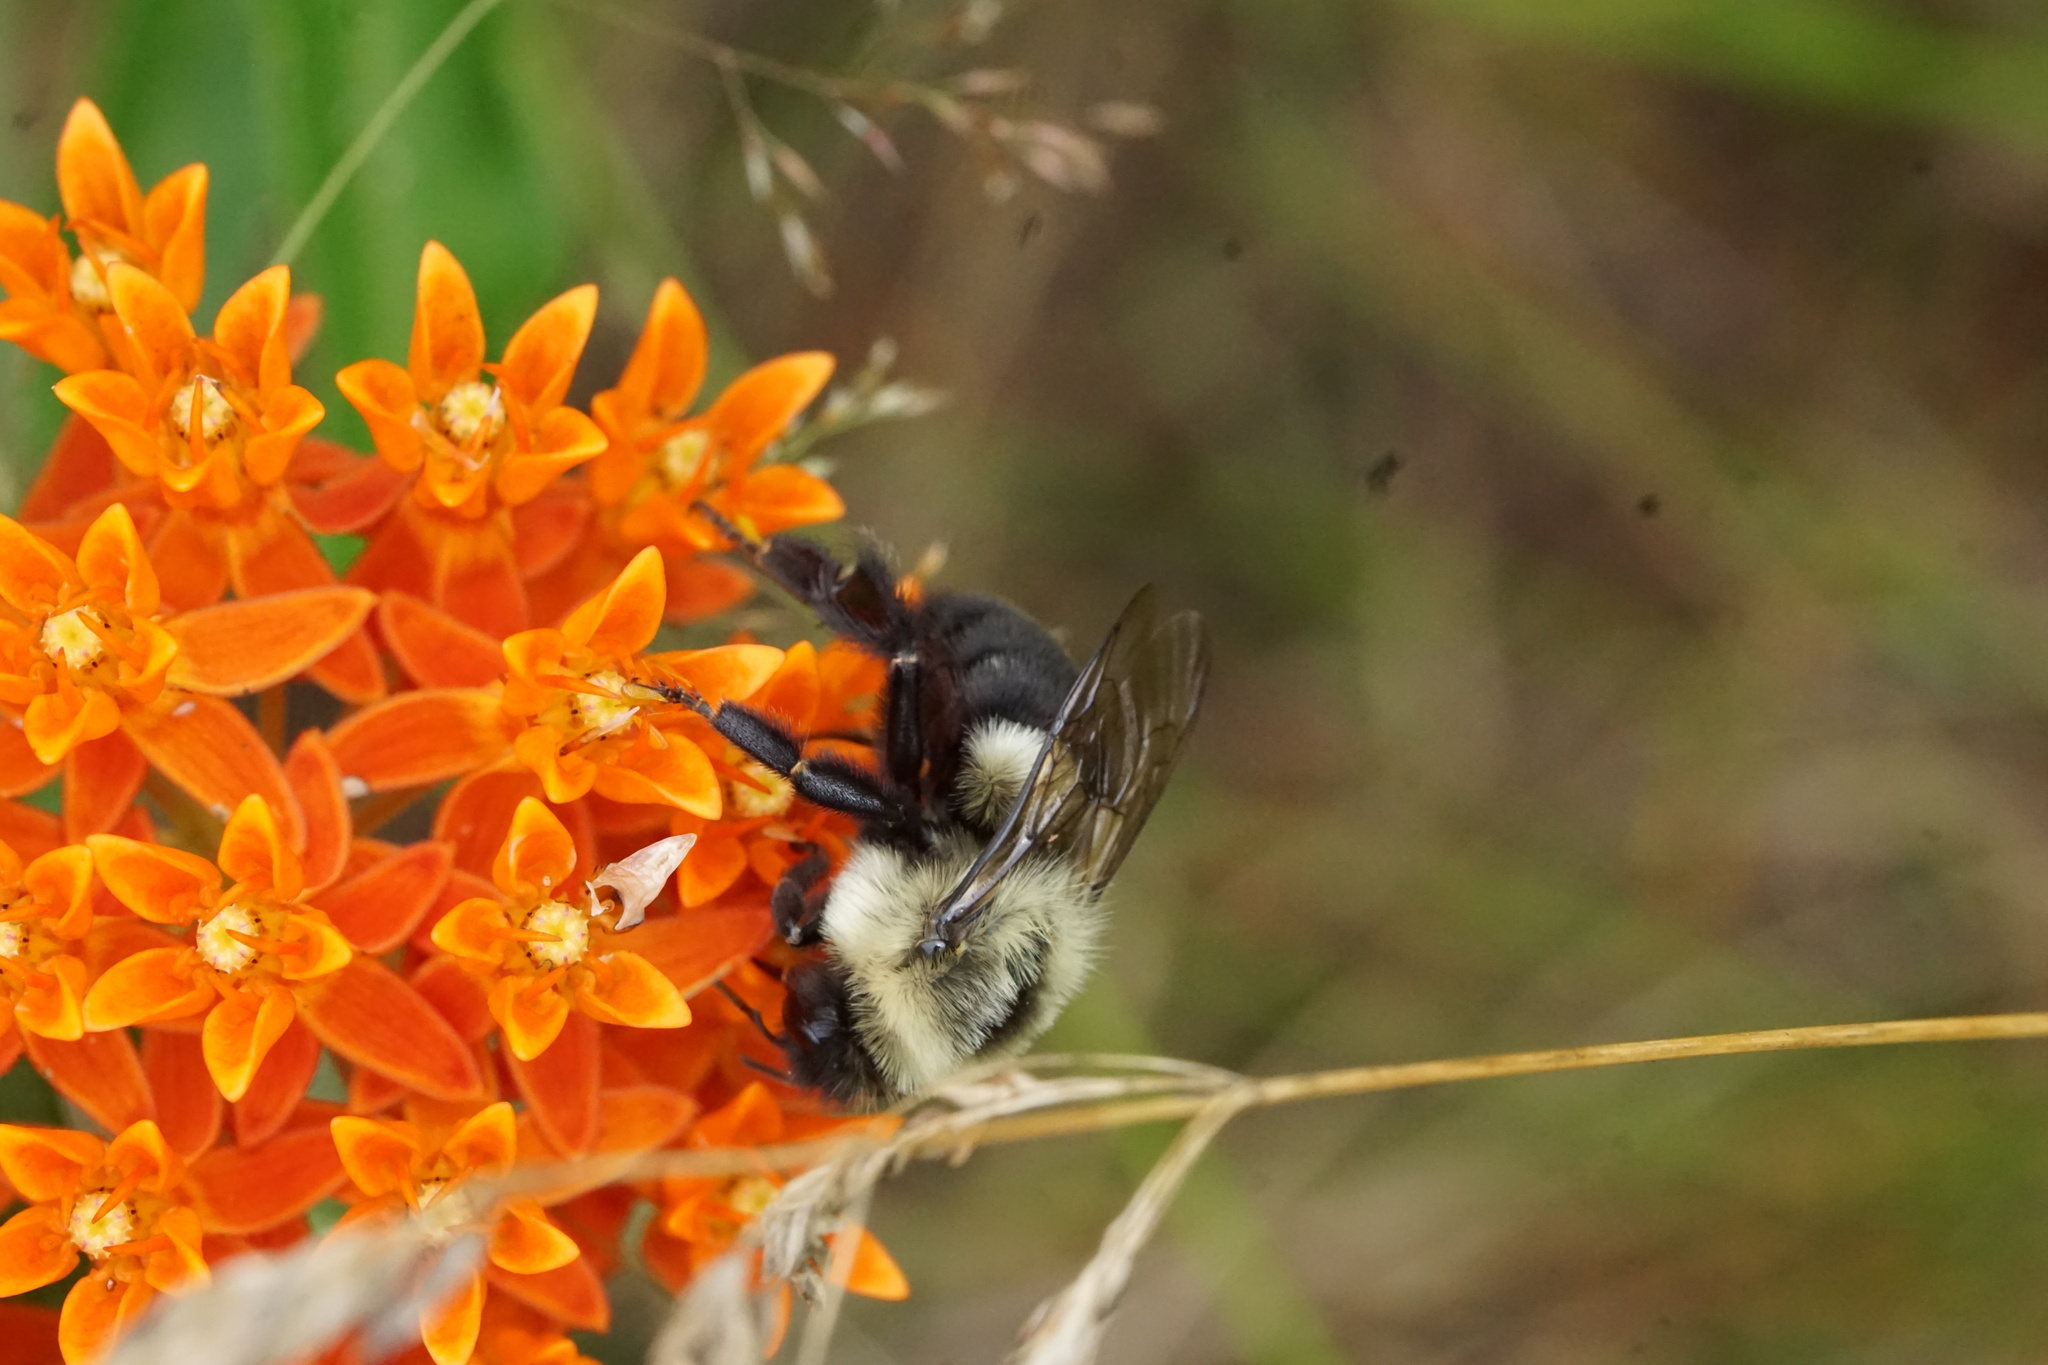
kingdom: Animalia
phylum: Arthropoda
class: Insecta
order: Hymenoptera
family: Apidae
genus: Bombus
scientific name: Bombus impatiens
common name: Common eastern bumble bee
